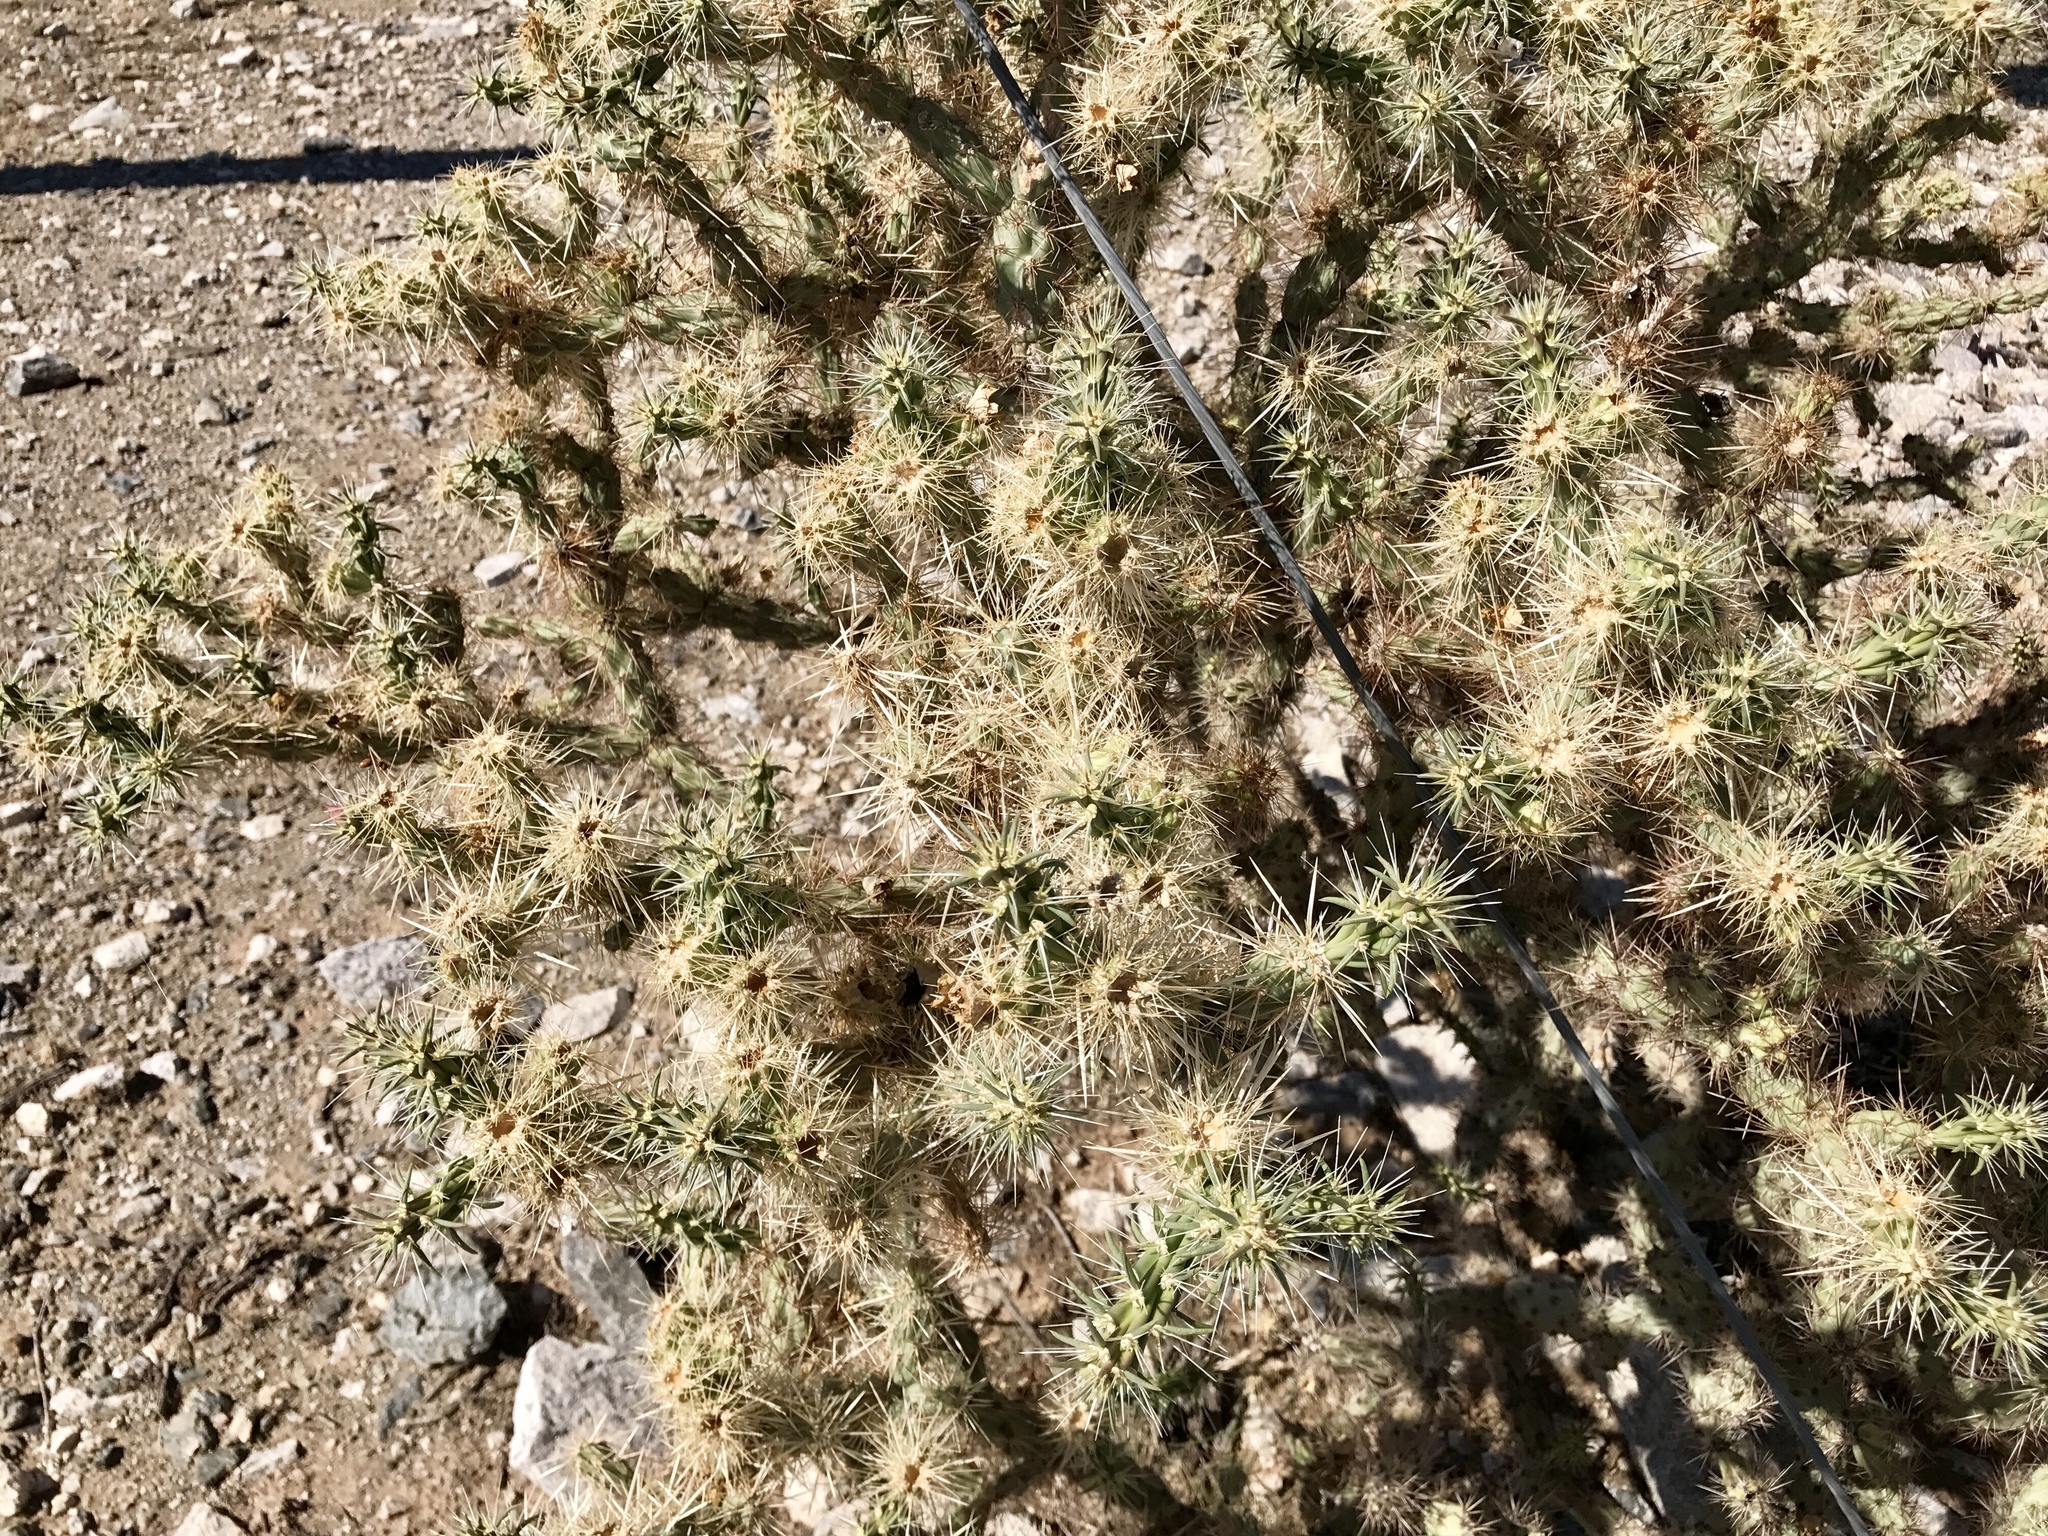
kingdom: Plantae
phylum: Tracheophyta
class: Magnoliopsida
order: Caryophyllales
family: Cactaceae
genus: Cylindropuntia
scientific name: Cylindropuntia acanthocarpa
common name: Buckhorn cholla
